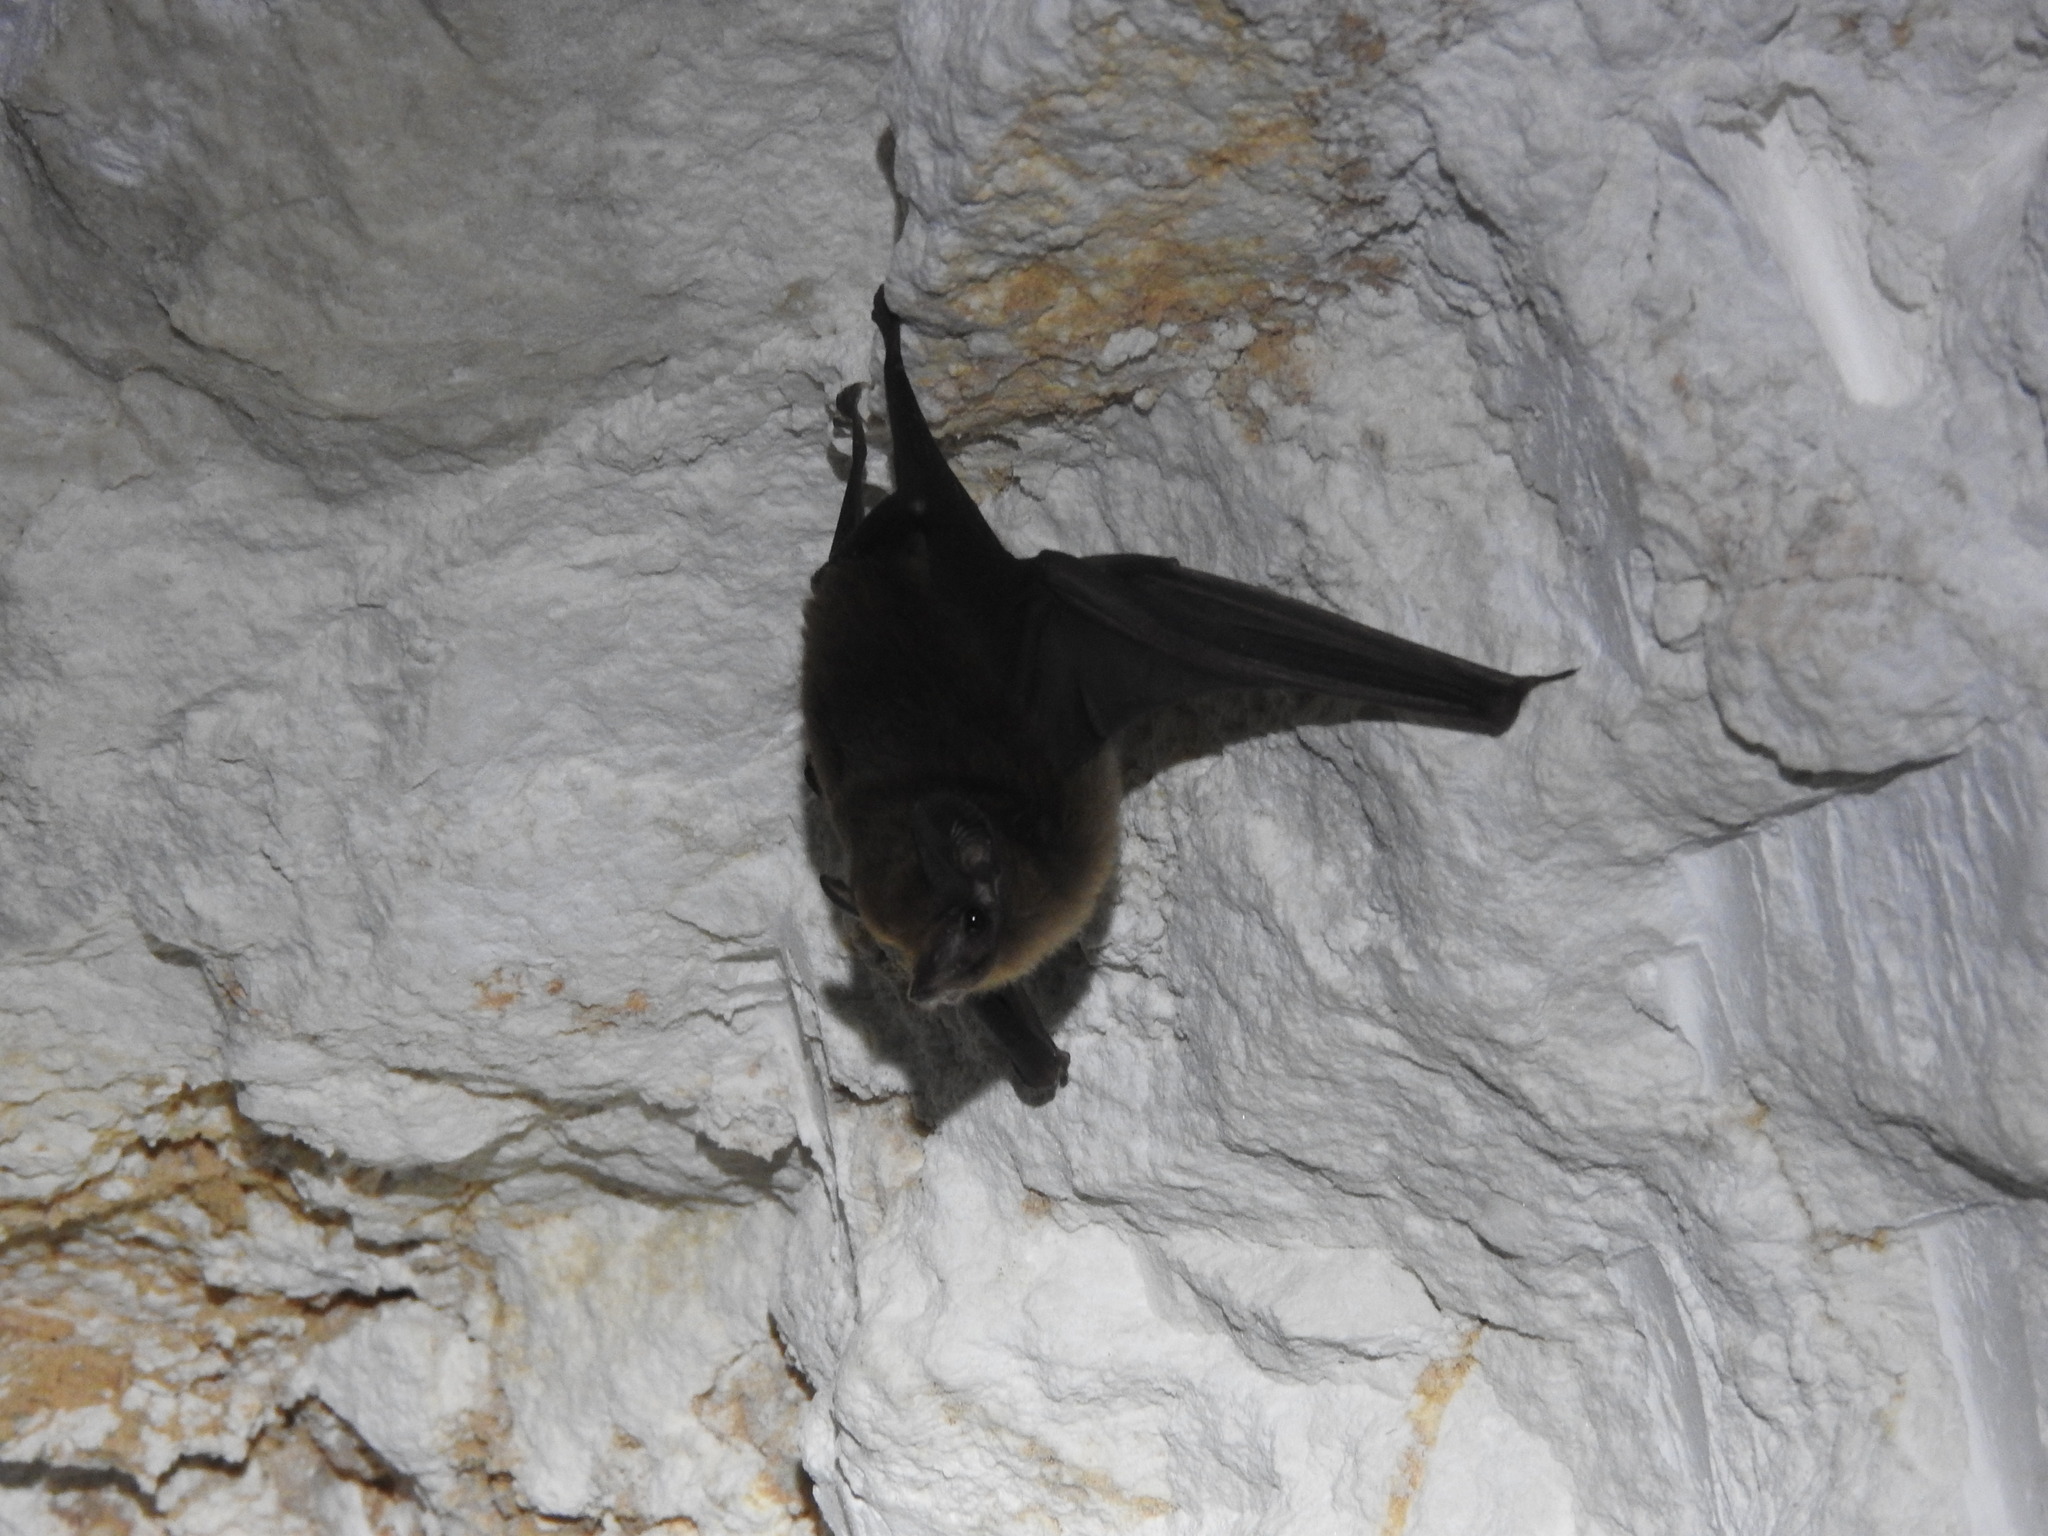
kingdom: Animalia
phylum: Chordata
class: Mammalia
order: Chiroptera
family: Emballonuridae
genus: Peropteryx
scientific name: Peropteryx macrotis
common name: Lesser dog-like bat
